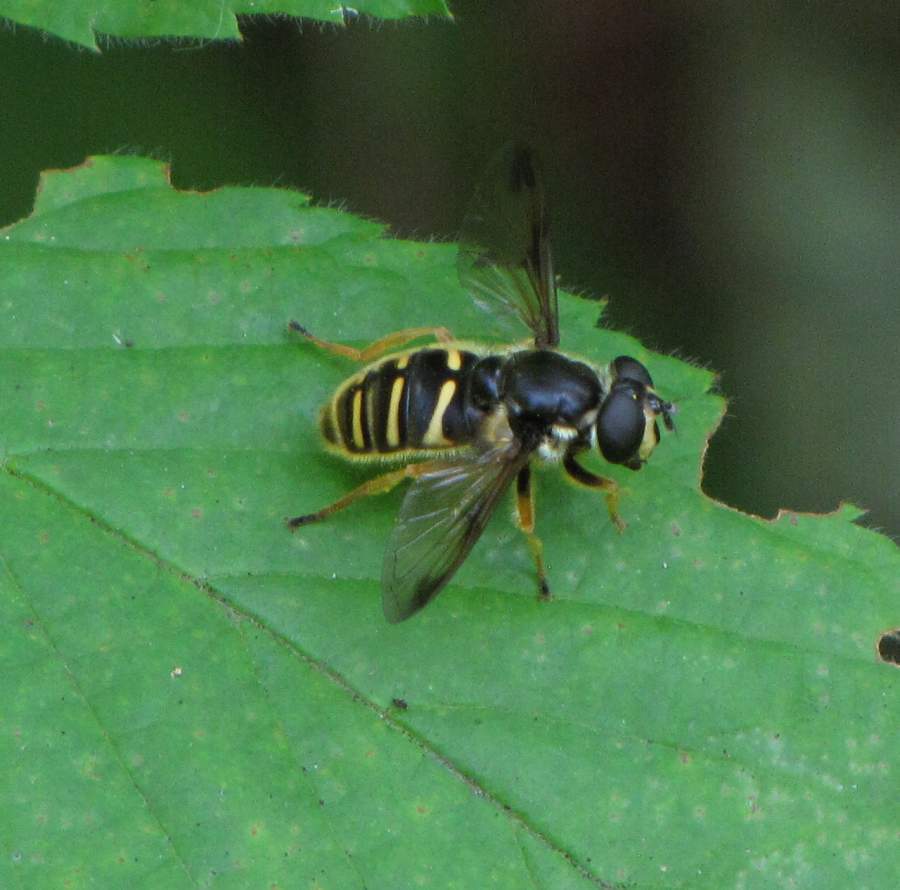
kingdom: Animalia
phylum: Arthropoda
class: Insecta
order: Diptera
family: Syrphidae
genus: Sericomyia
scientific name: Sericomyia chrysotoxoides
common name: Oblique-banded pond fly
